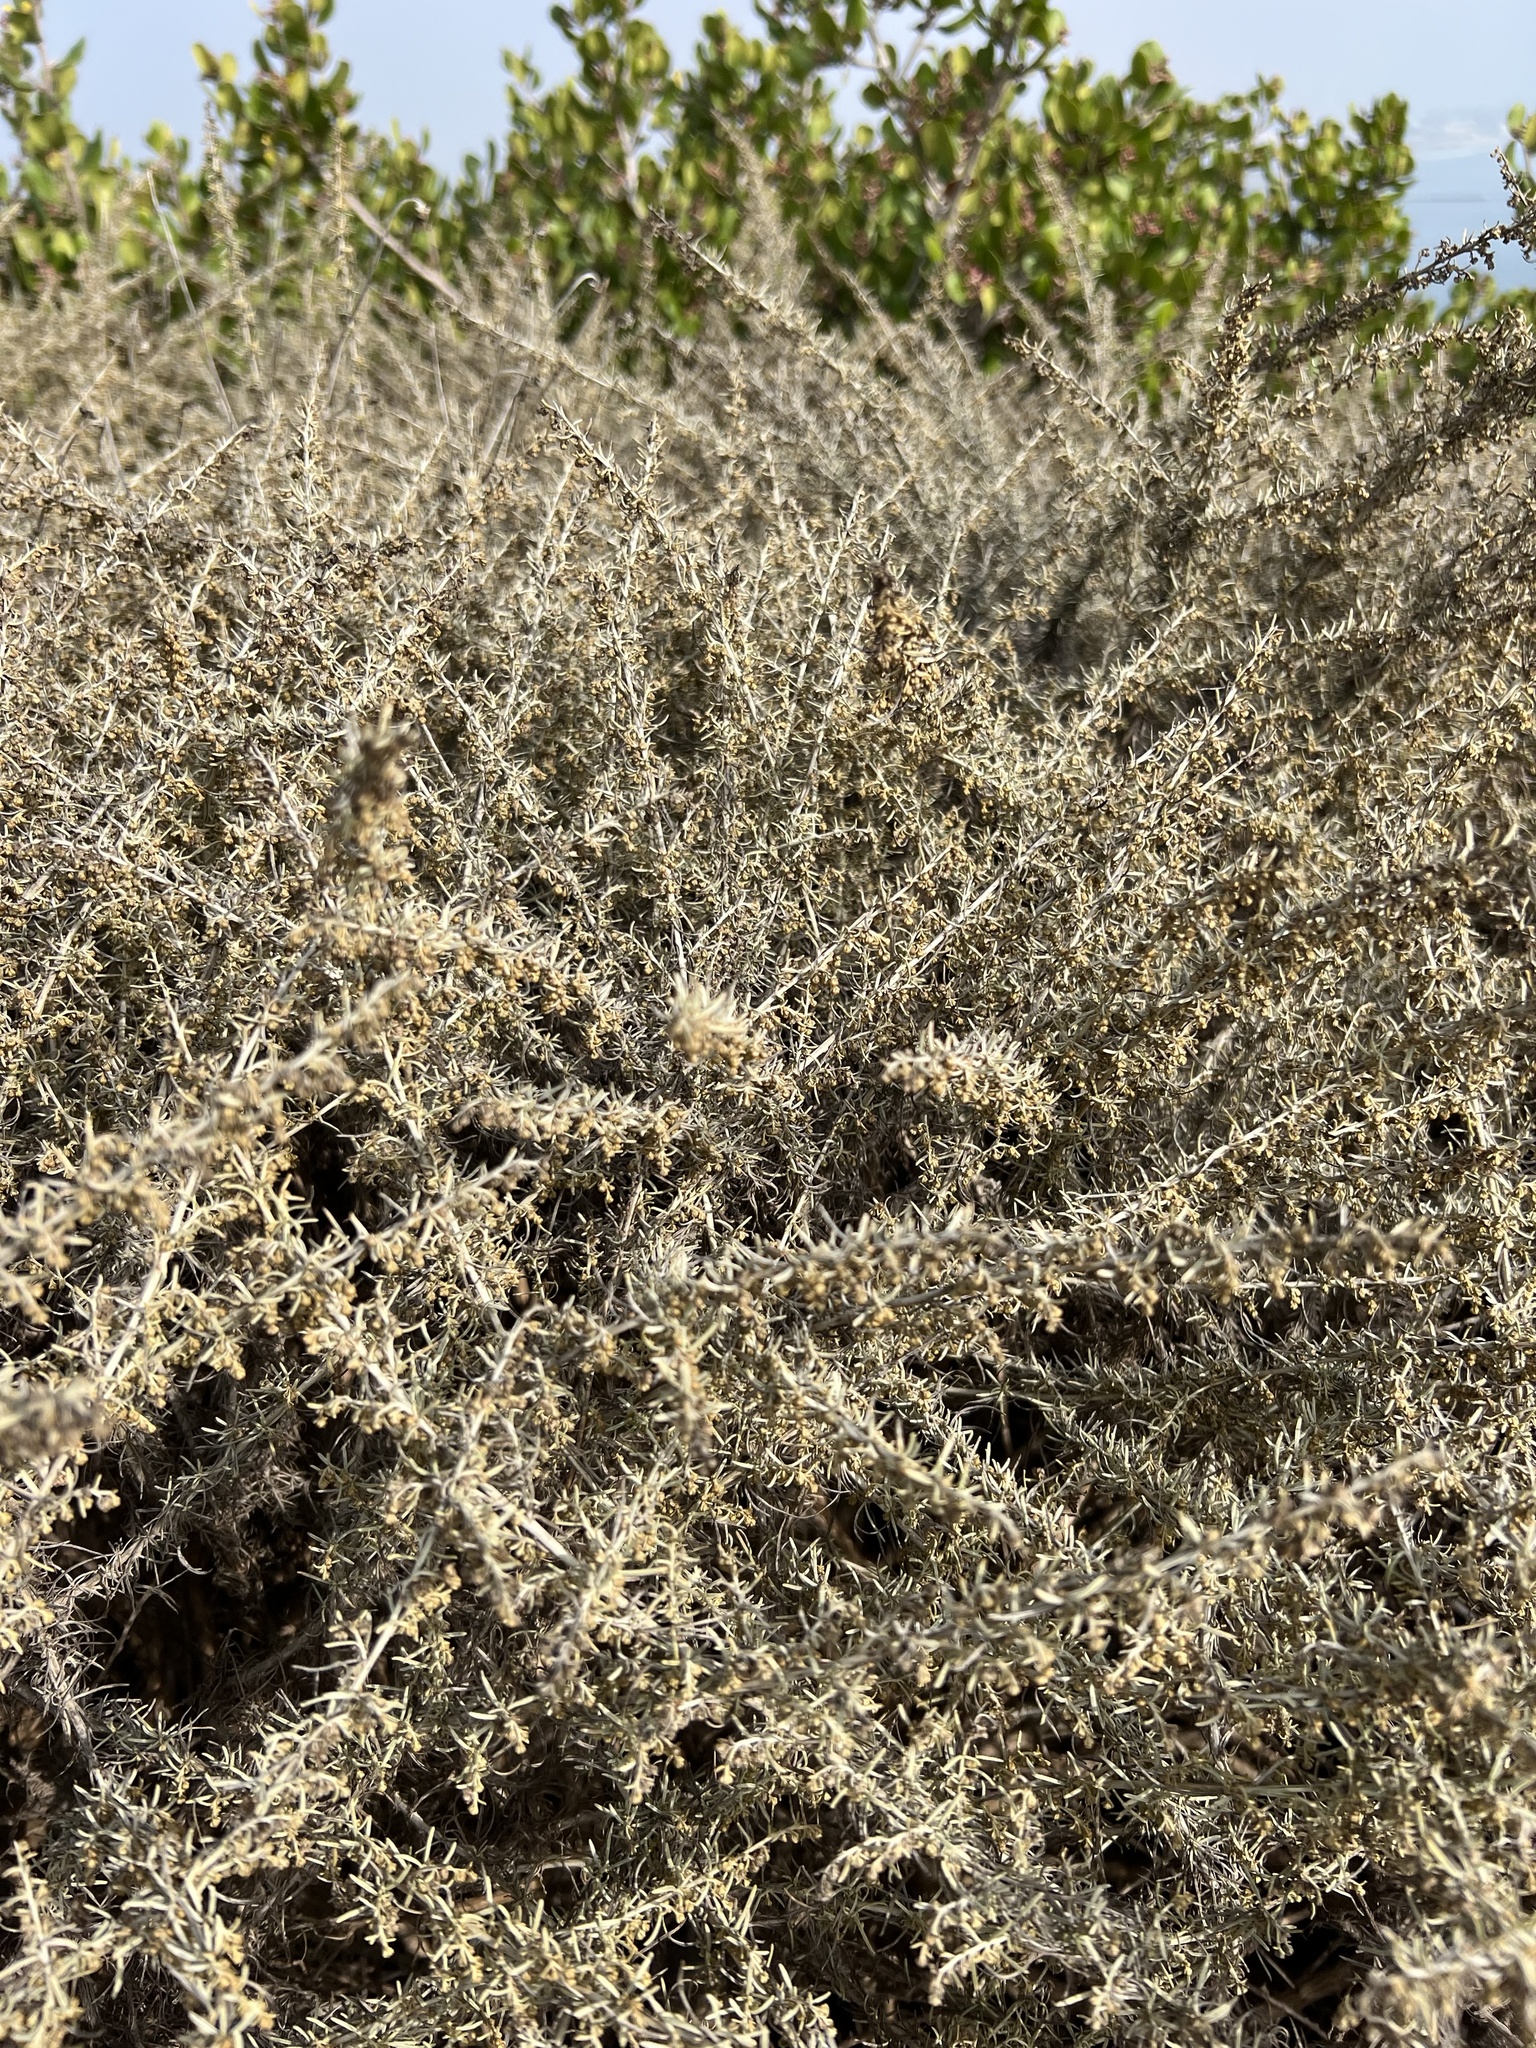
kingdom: Plantae
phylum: Tracheophyta
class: Magnoliopsida
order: Asterales
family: Asteraceae
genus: Artemisia
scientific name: Artemisia californica
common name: California sagebrush
